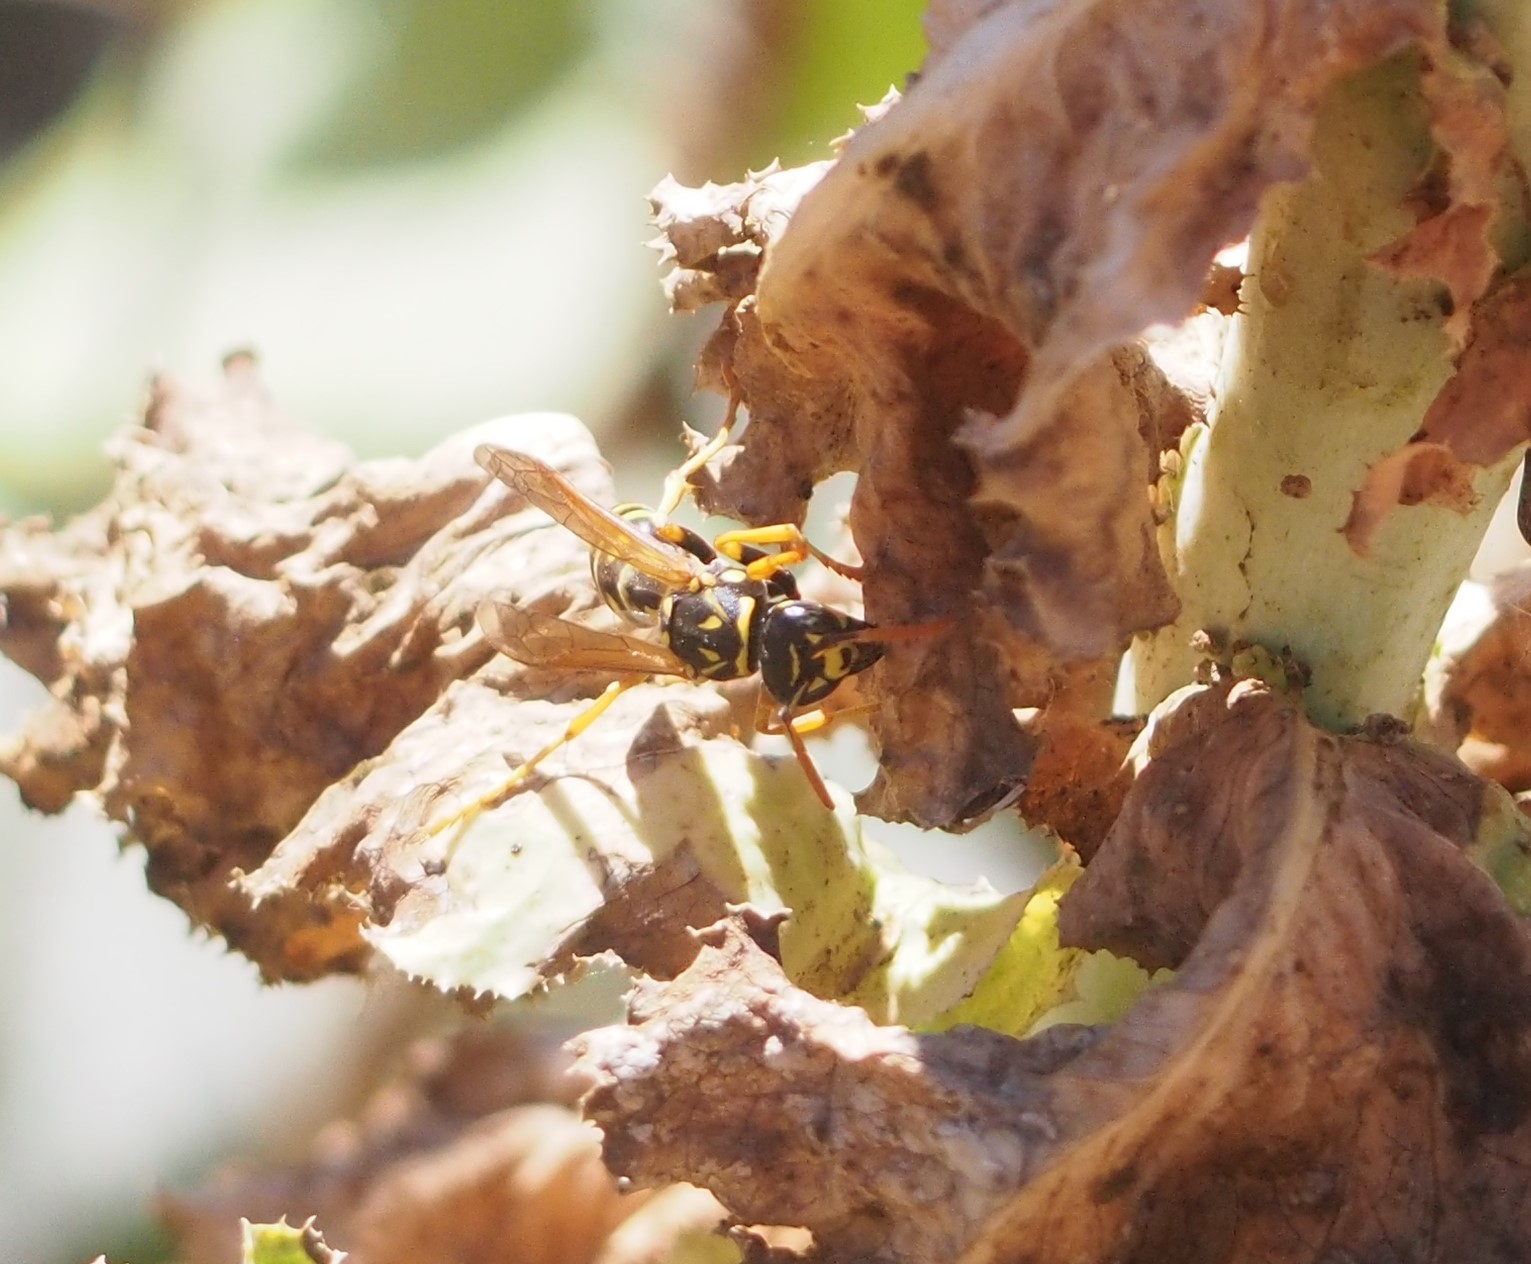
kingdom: Animalia
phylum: Arthropoda
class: Insecta
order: Hymenoptera
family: Eumenidae
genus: Polistes
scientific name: Polistes dominula
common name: Paper wasp
